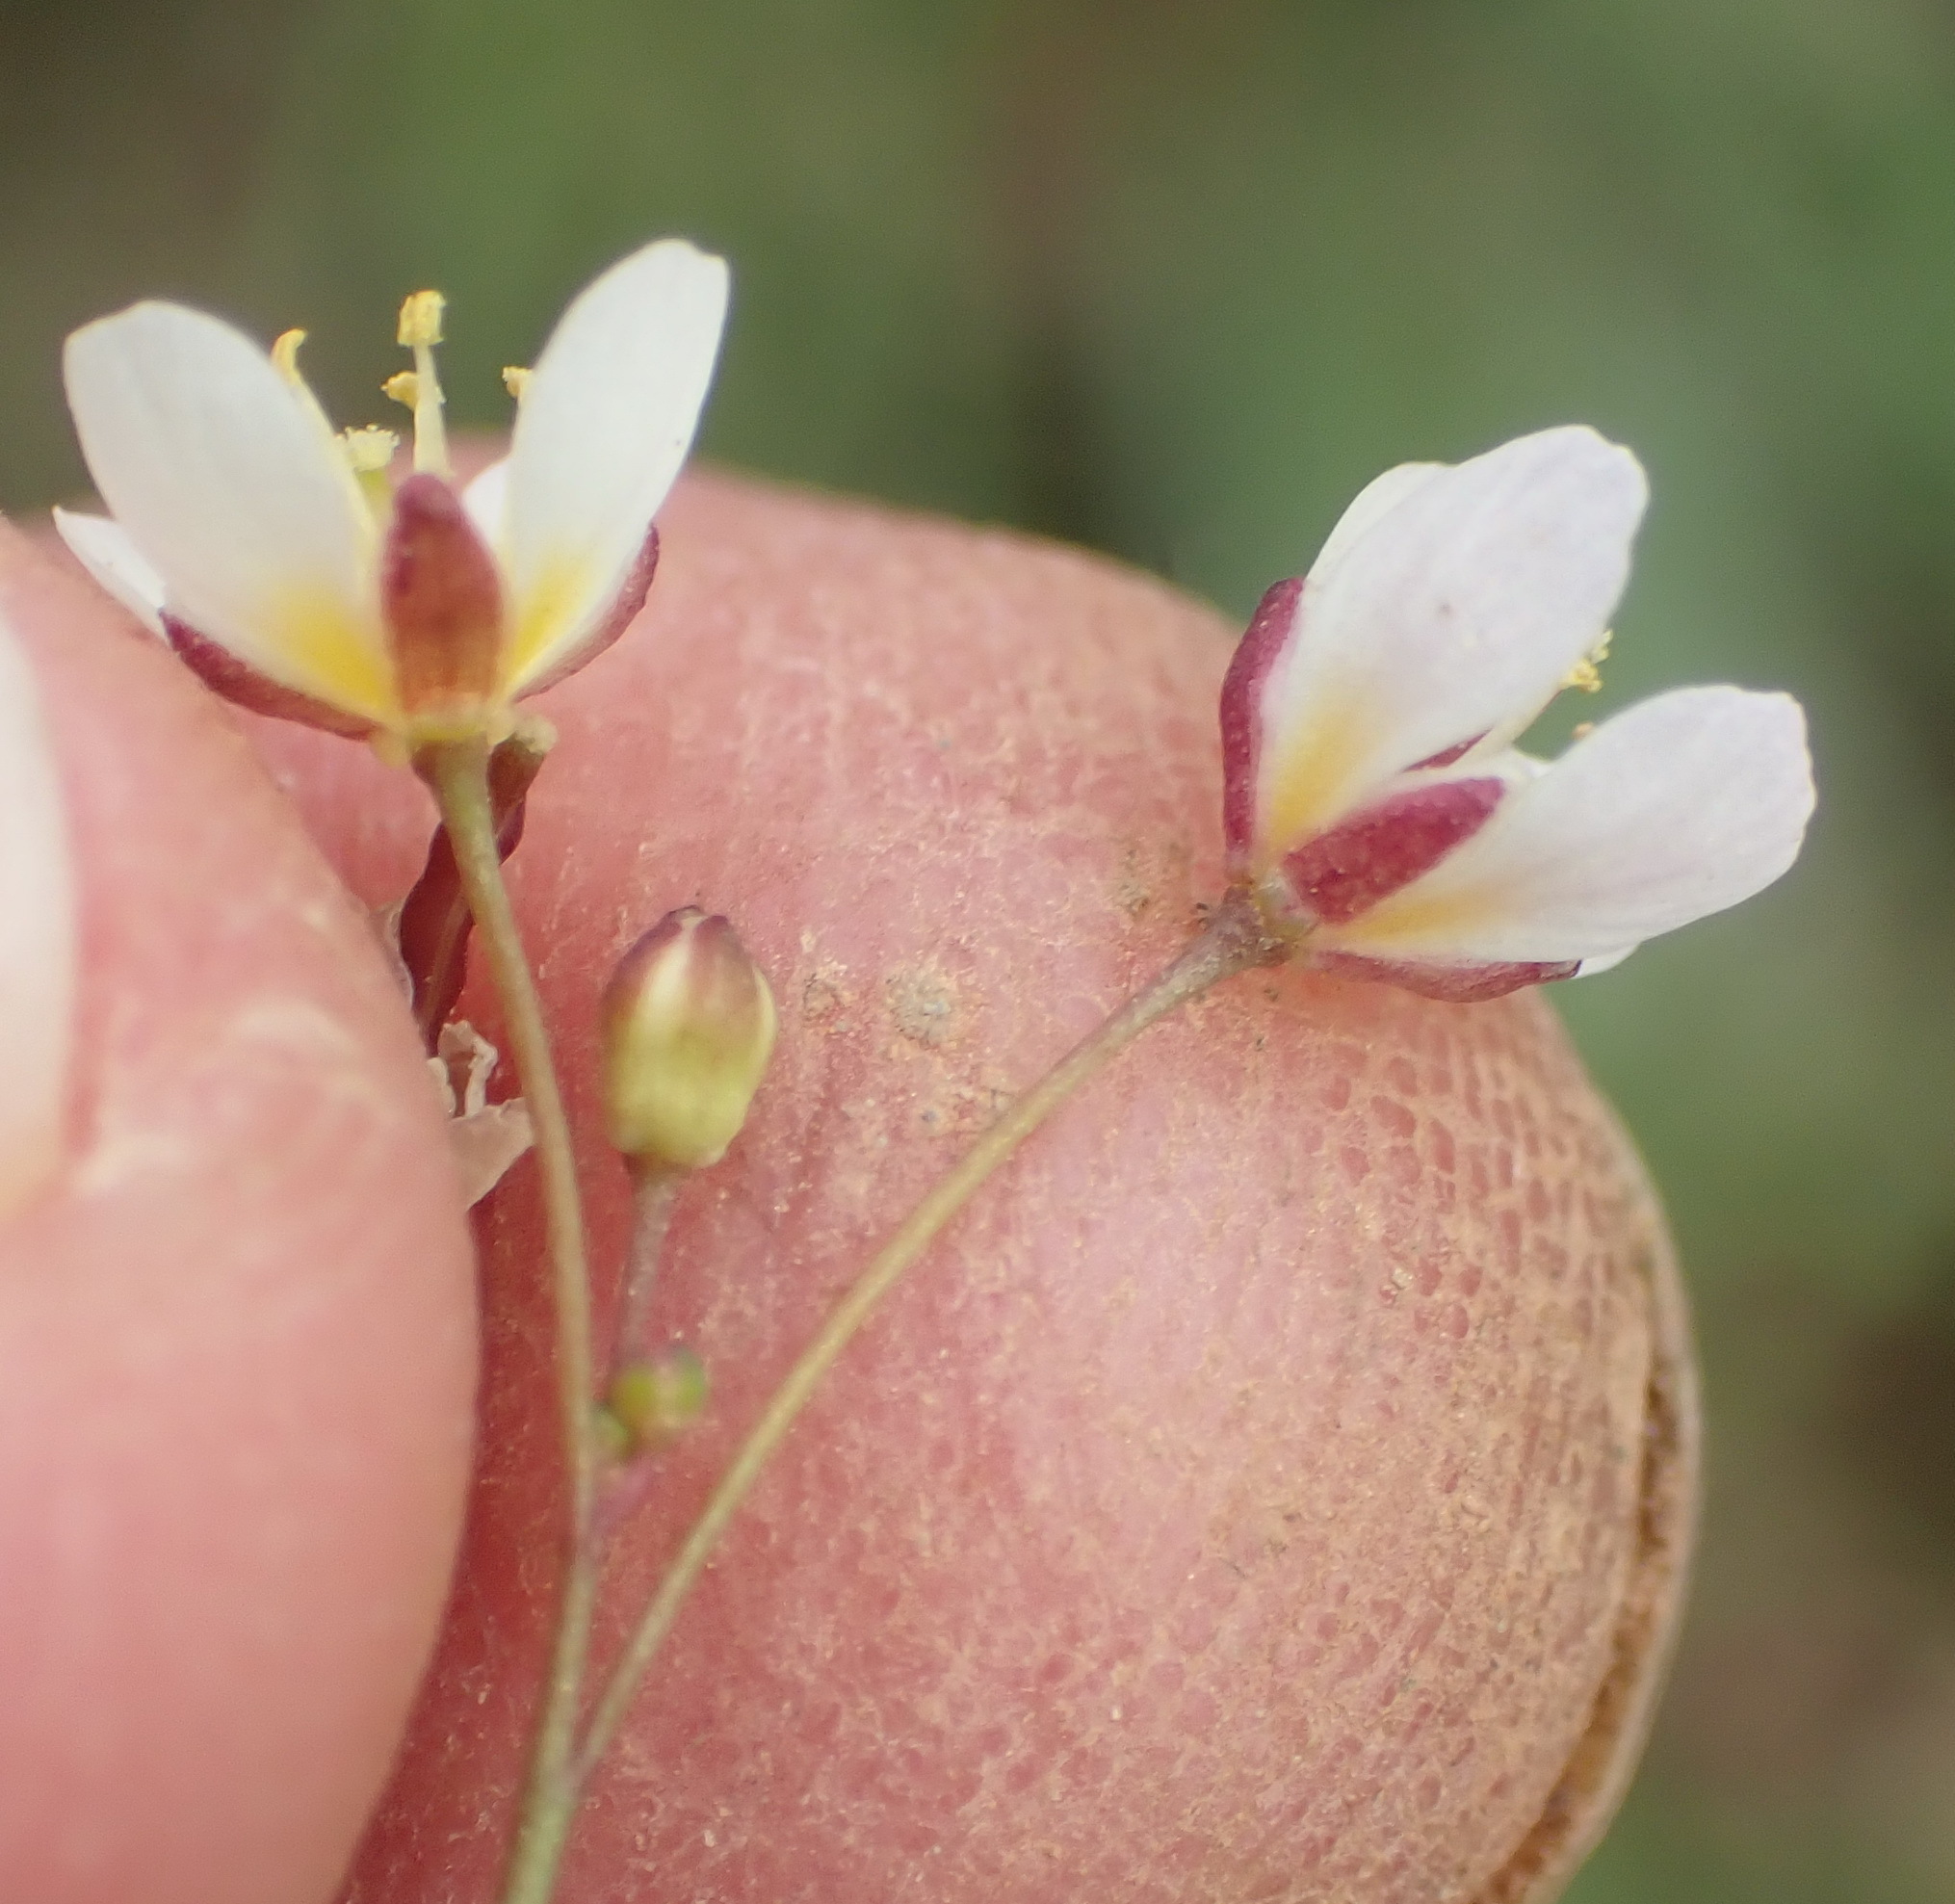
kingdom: Plantae
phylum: Tracheophyta
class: Magnoliopsida
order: Brassicales
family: Brassicaceae
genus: Heliophila
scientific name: Heliophila pendula
